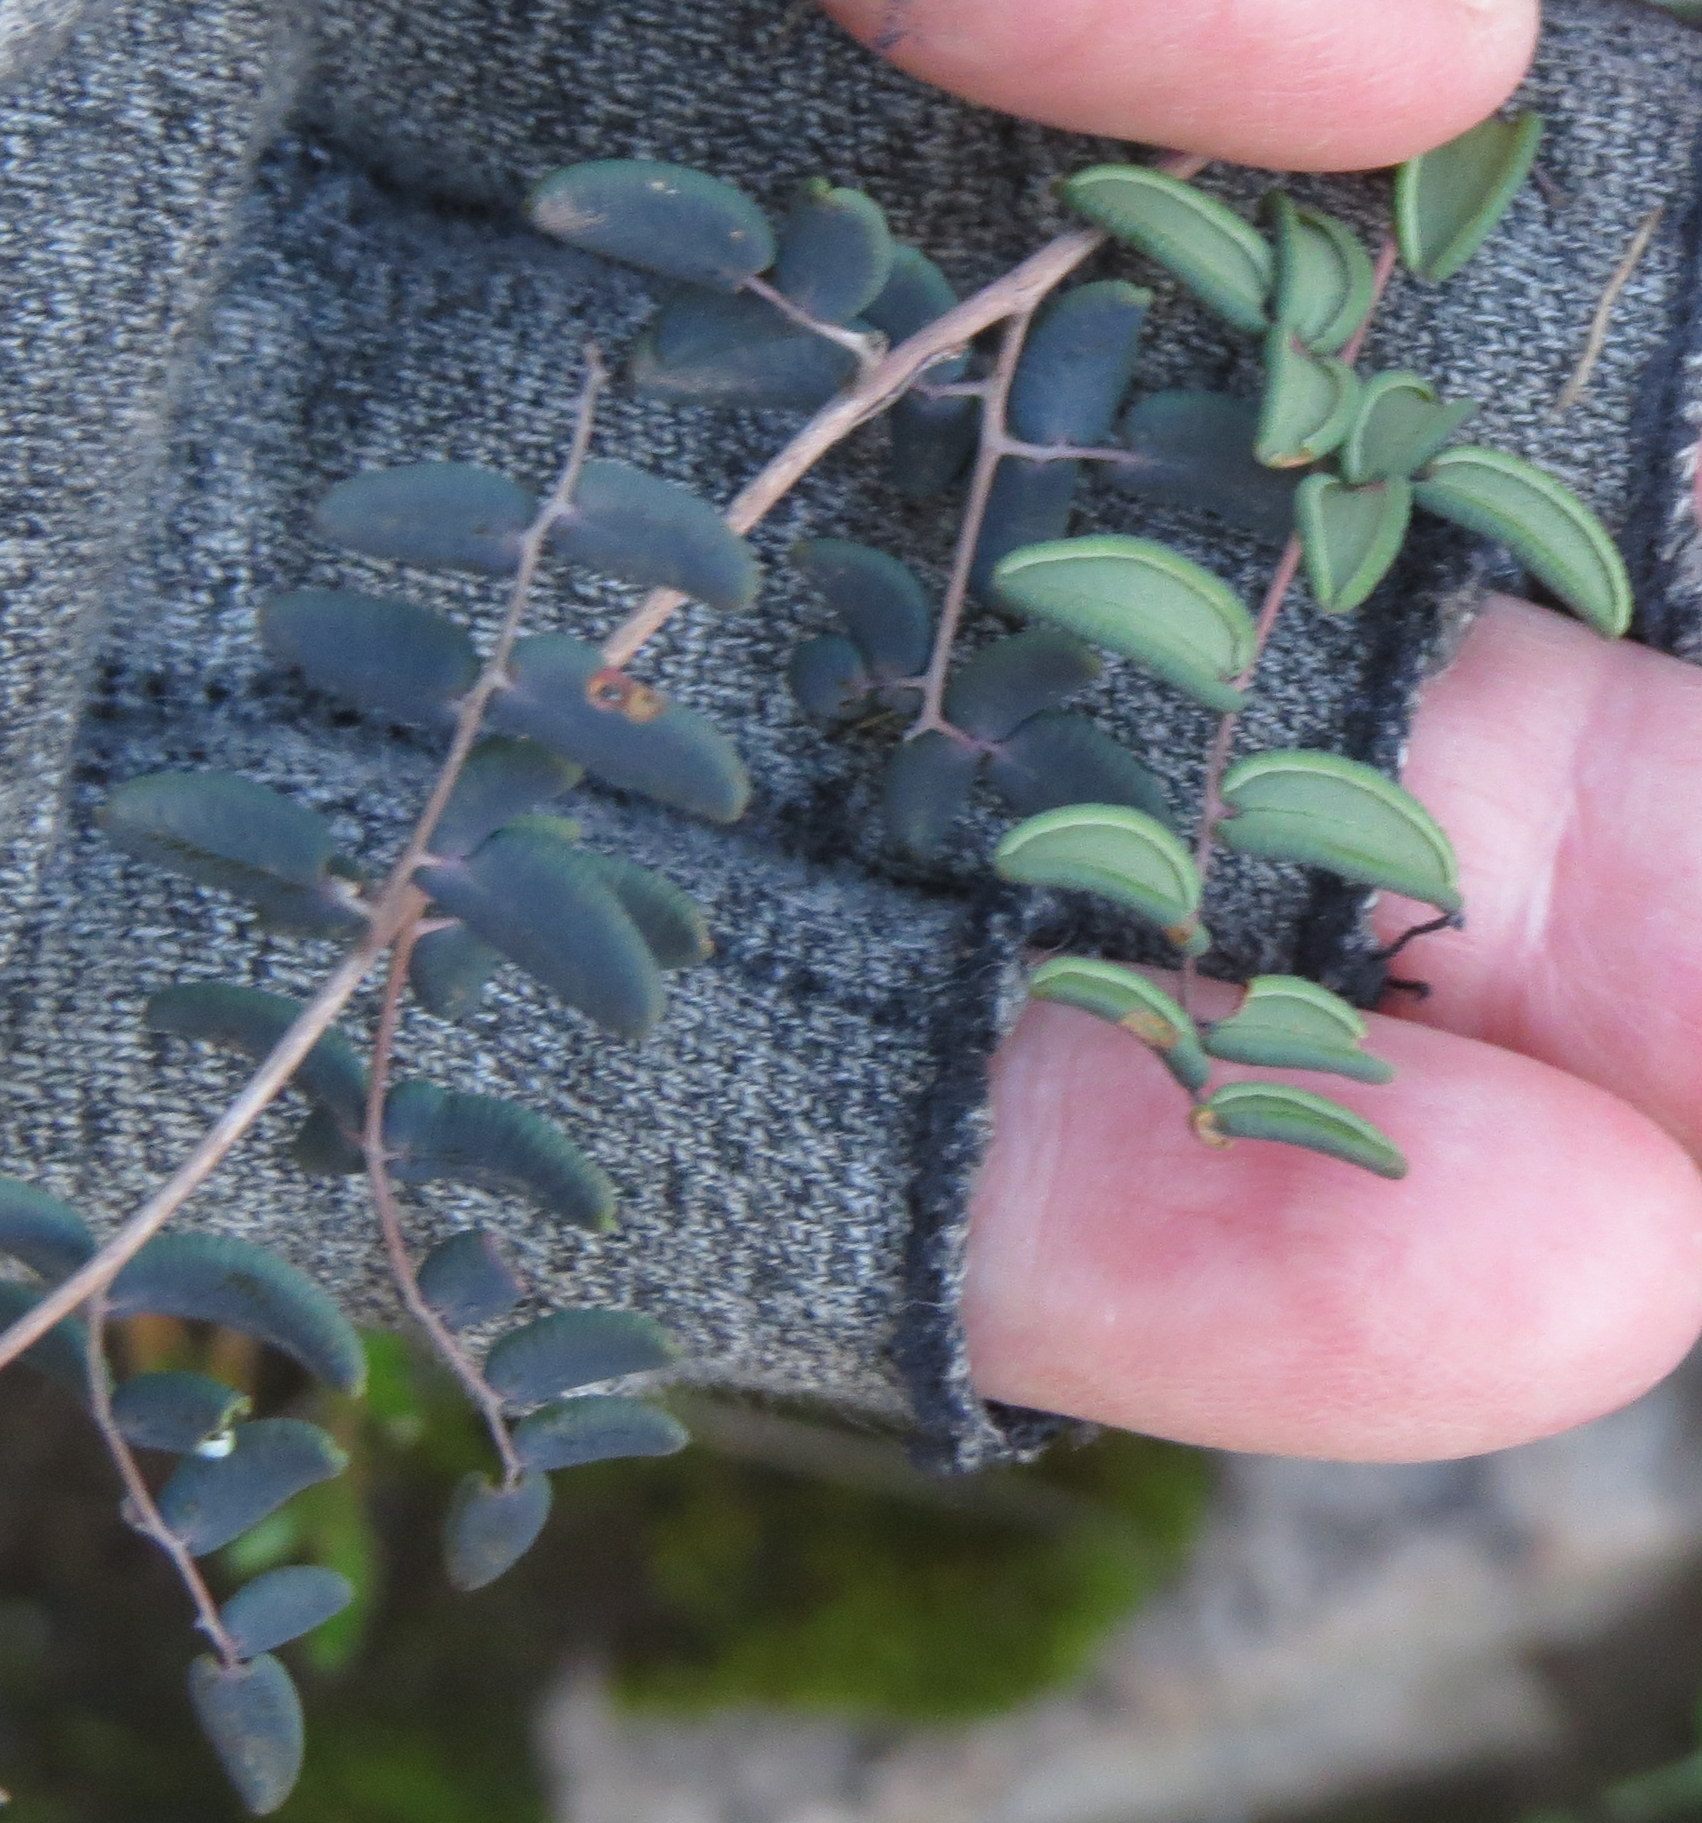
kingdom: Plantae
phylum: Tracheophyta
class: Polypodiopsida
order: Polypodiales
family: Pteridaceae
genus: Pellaea
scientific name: Pellaea andromedifolia
